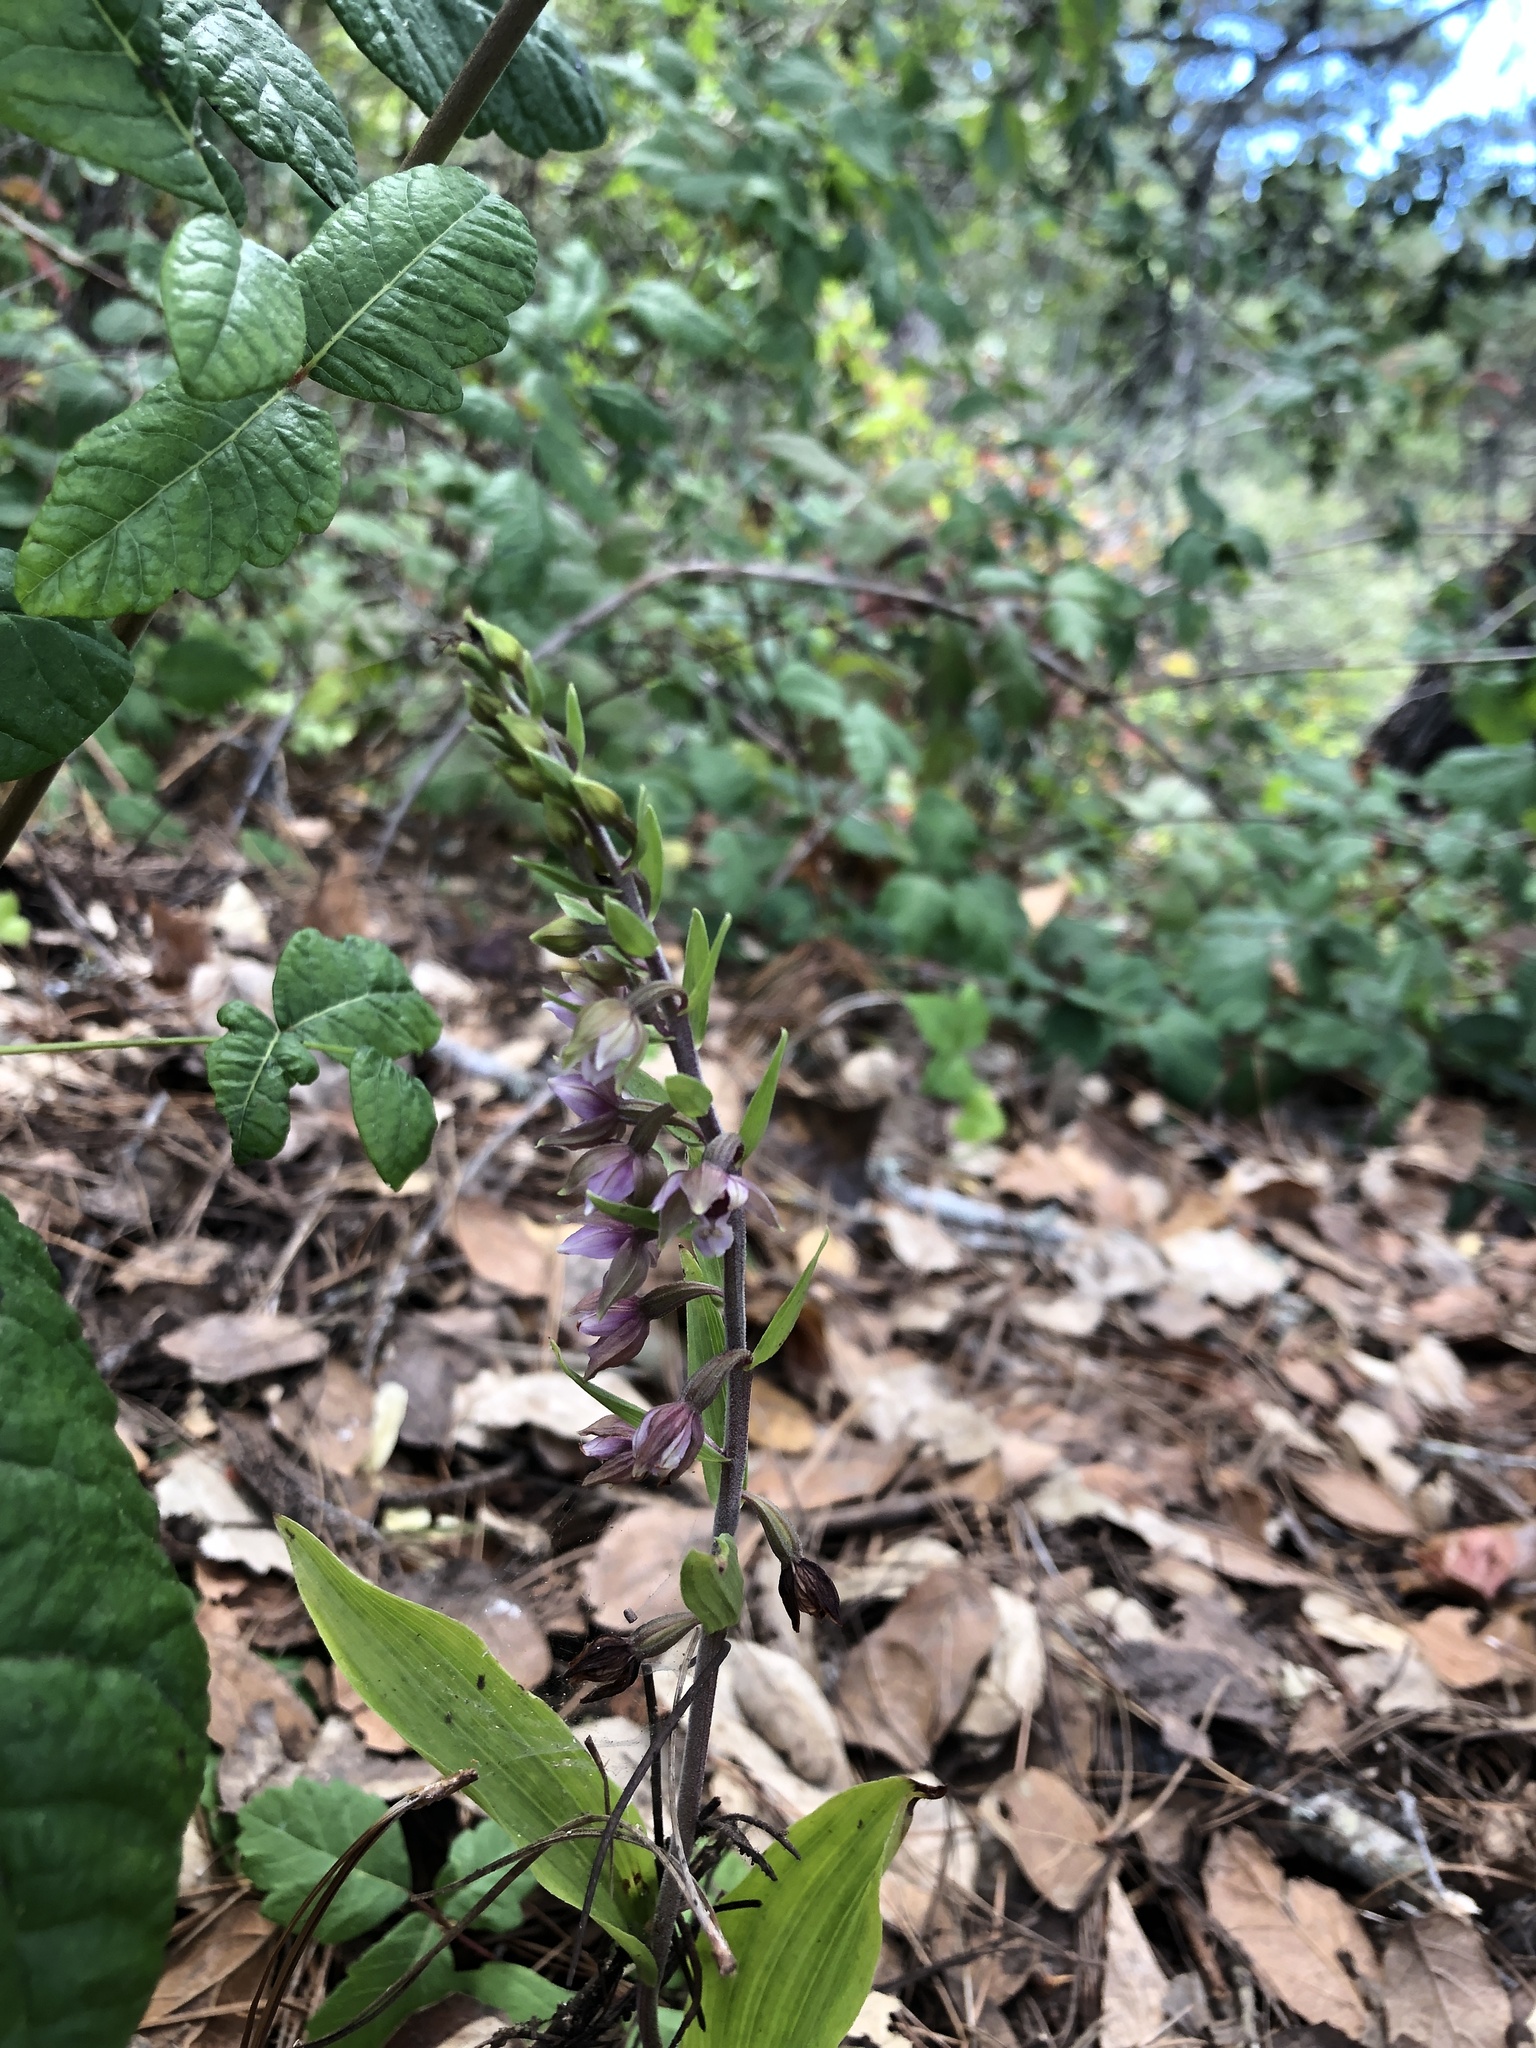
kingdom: Plantae
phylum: Tracheophyta
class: Liliopsida
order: Asparagales
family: Orchidaceae
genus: Epipactis
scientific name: Epipactis helleborine
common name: Broad-leaved helleborine
